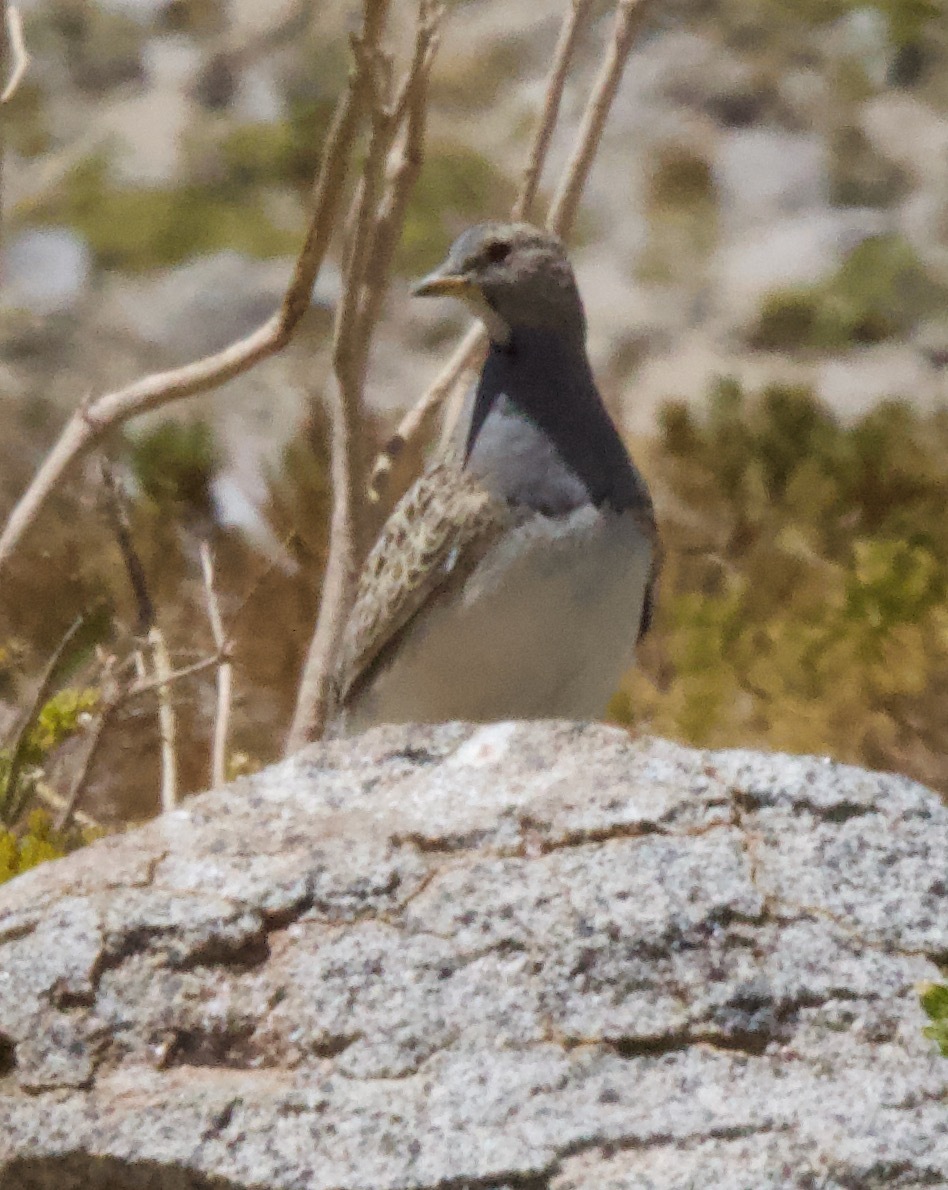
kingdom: Animalia
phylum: Chordata
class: Aves
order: Charadriiformes
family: Thinocoridae
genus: Thinocorus
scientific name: Thinocorus orbignyianus
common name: Grey-breasted seedsnipe
